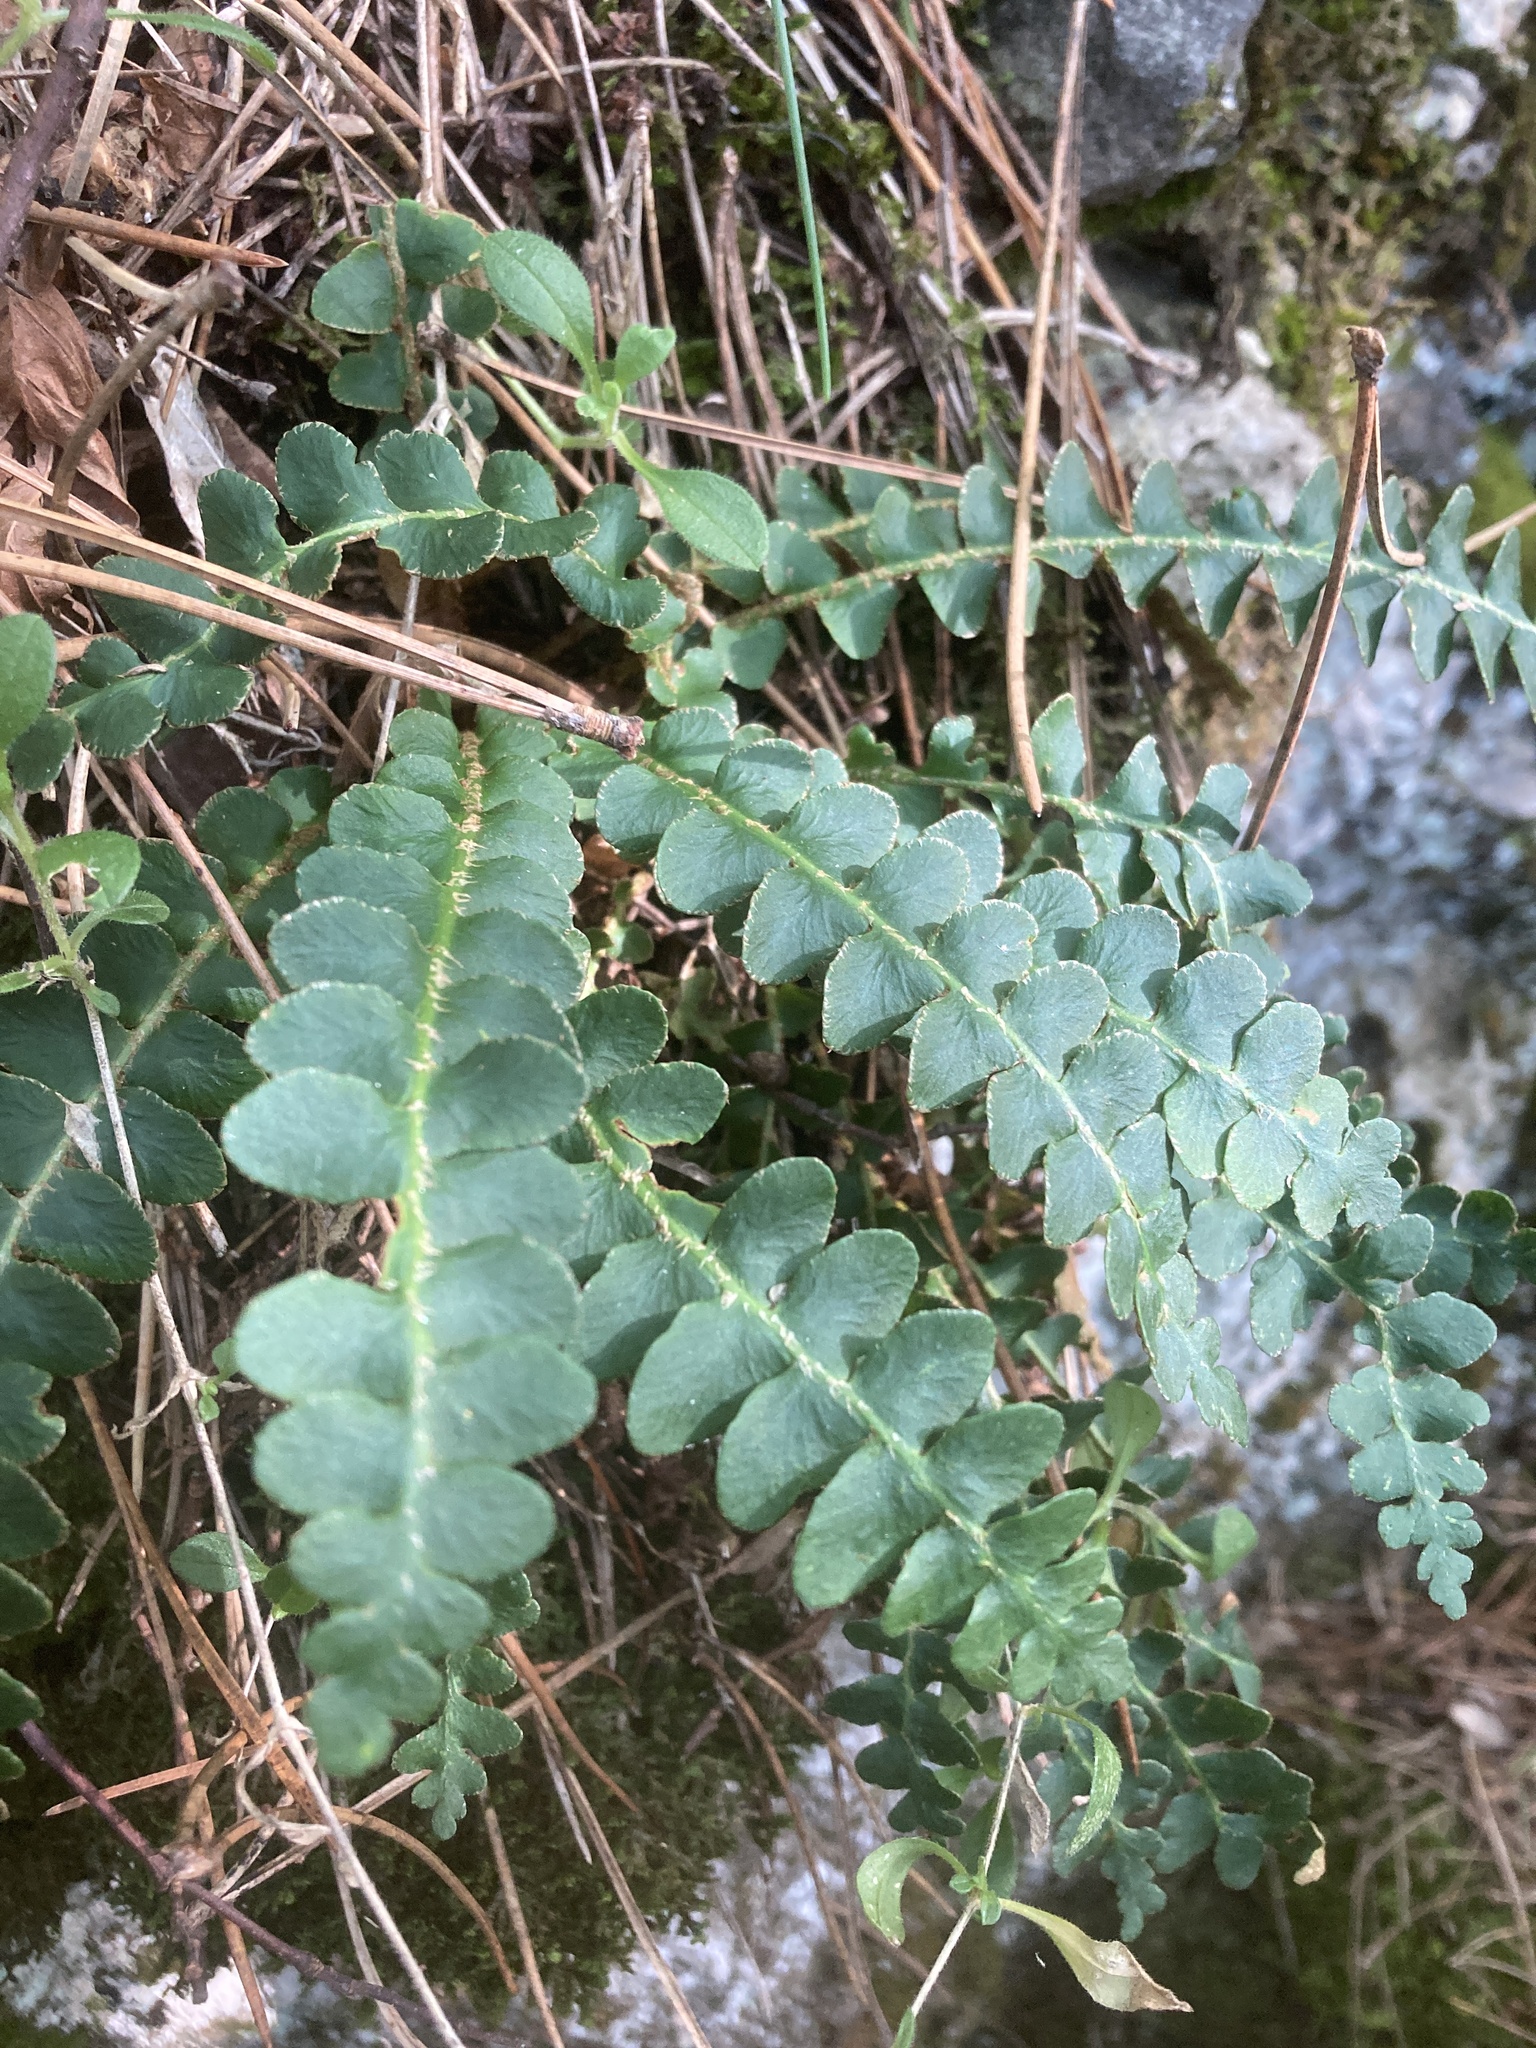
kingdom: Plantae
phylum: Tracheophyta
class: Polypodiopsida
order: Polypodiales
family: Aspleniaceae
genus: Asplenium
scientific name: Asplenium ceterach
